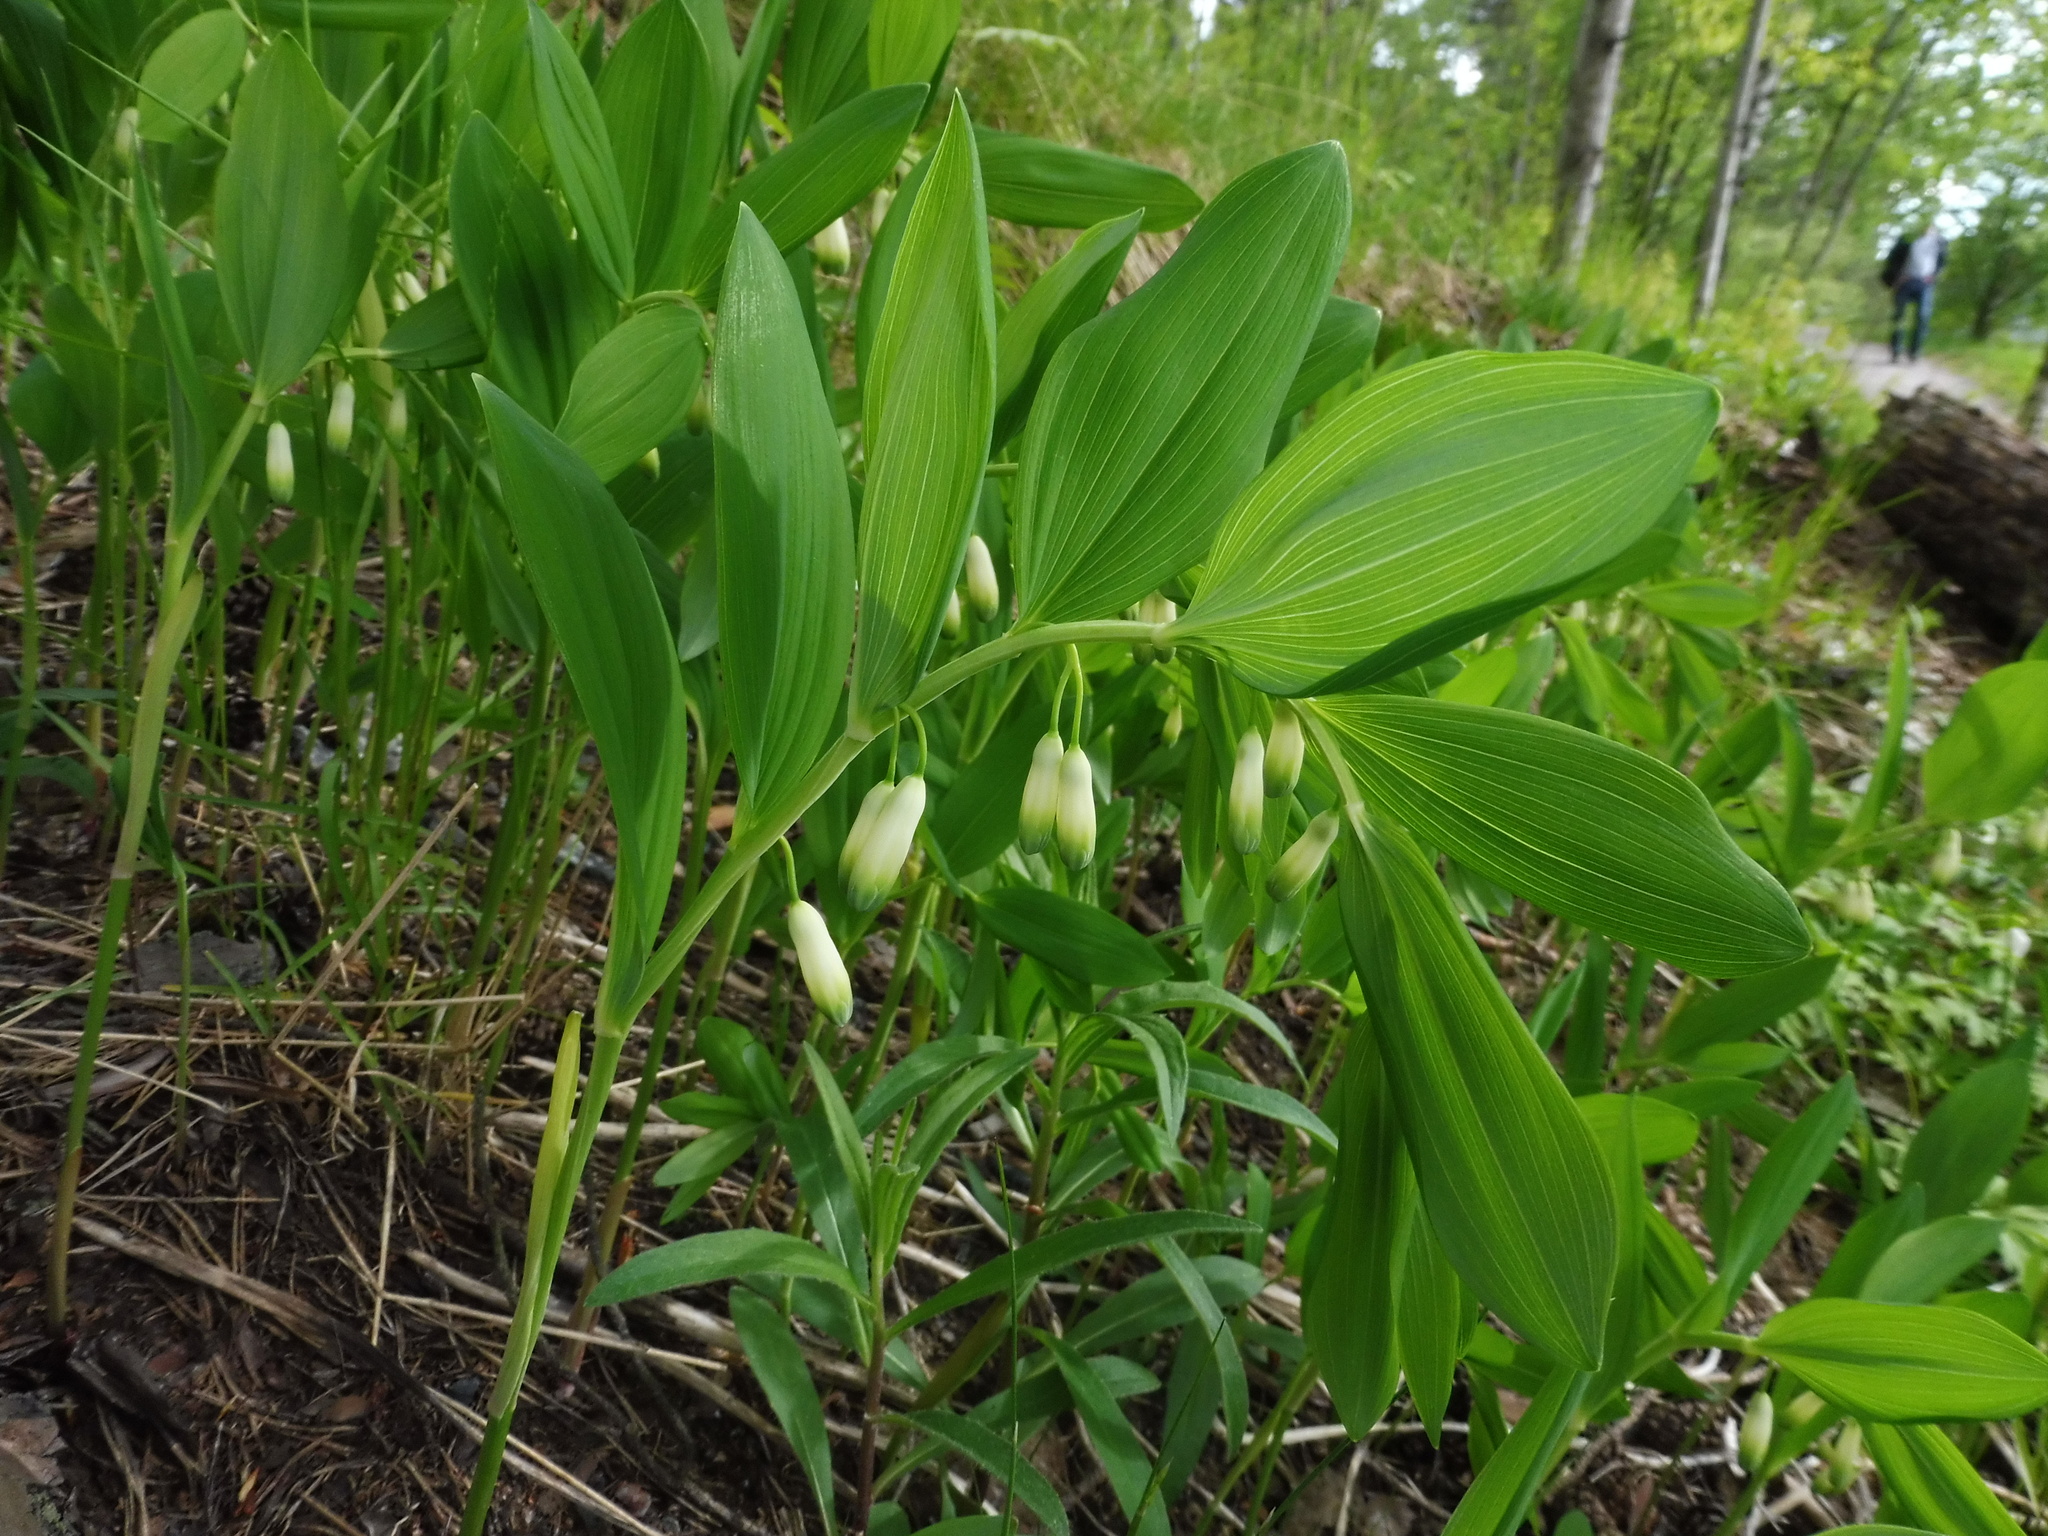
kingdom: Plantae
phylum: Tracheophyta
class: Liliopsida
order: Asparagales
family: Asparagaceae
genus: Polygonatum
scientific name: Polygonatum odoratum
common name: Angular solomon's-seal
